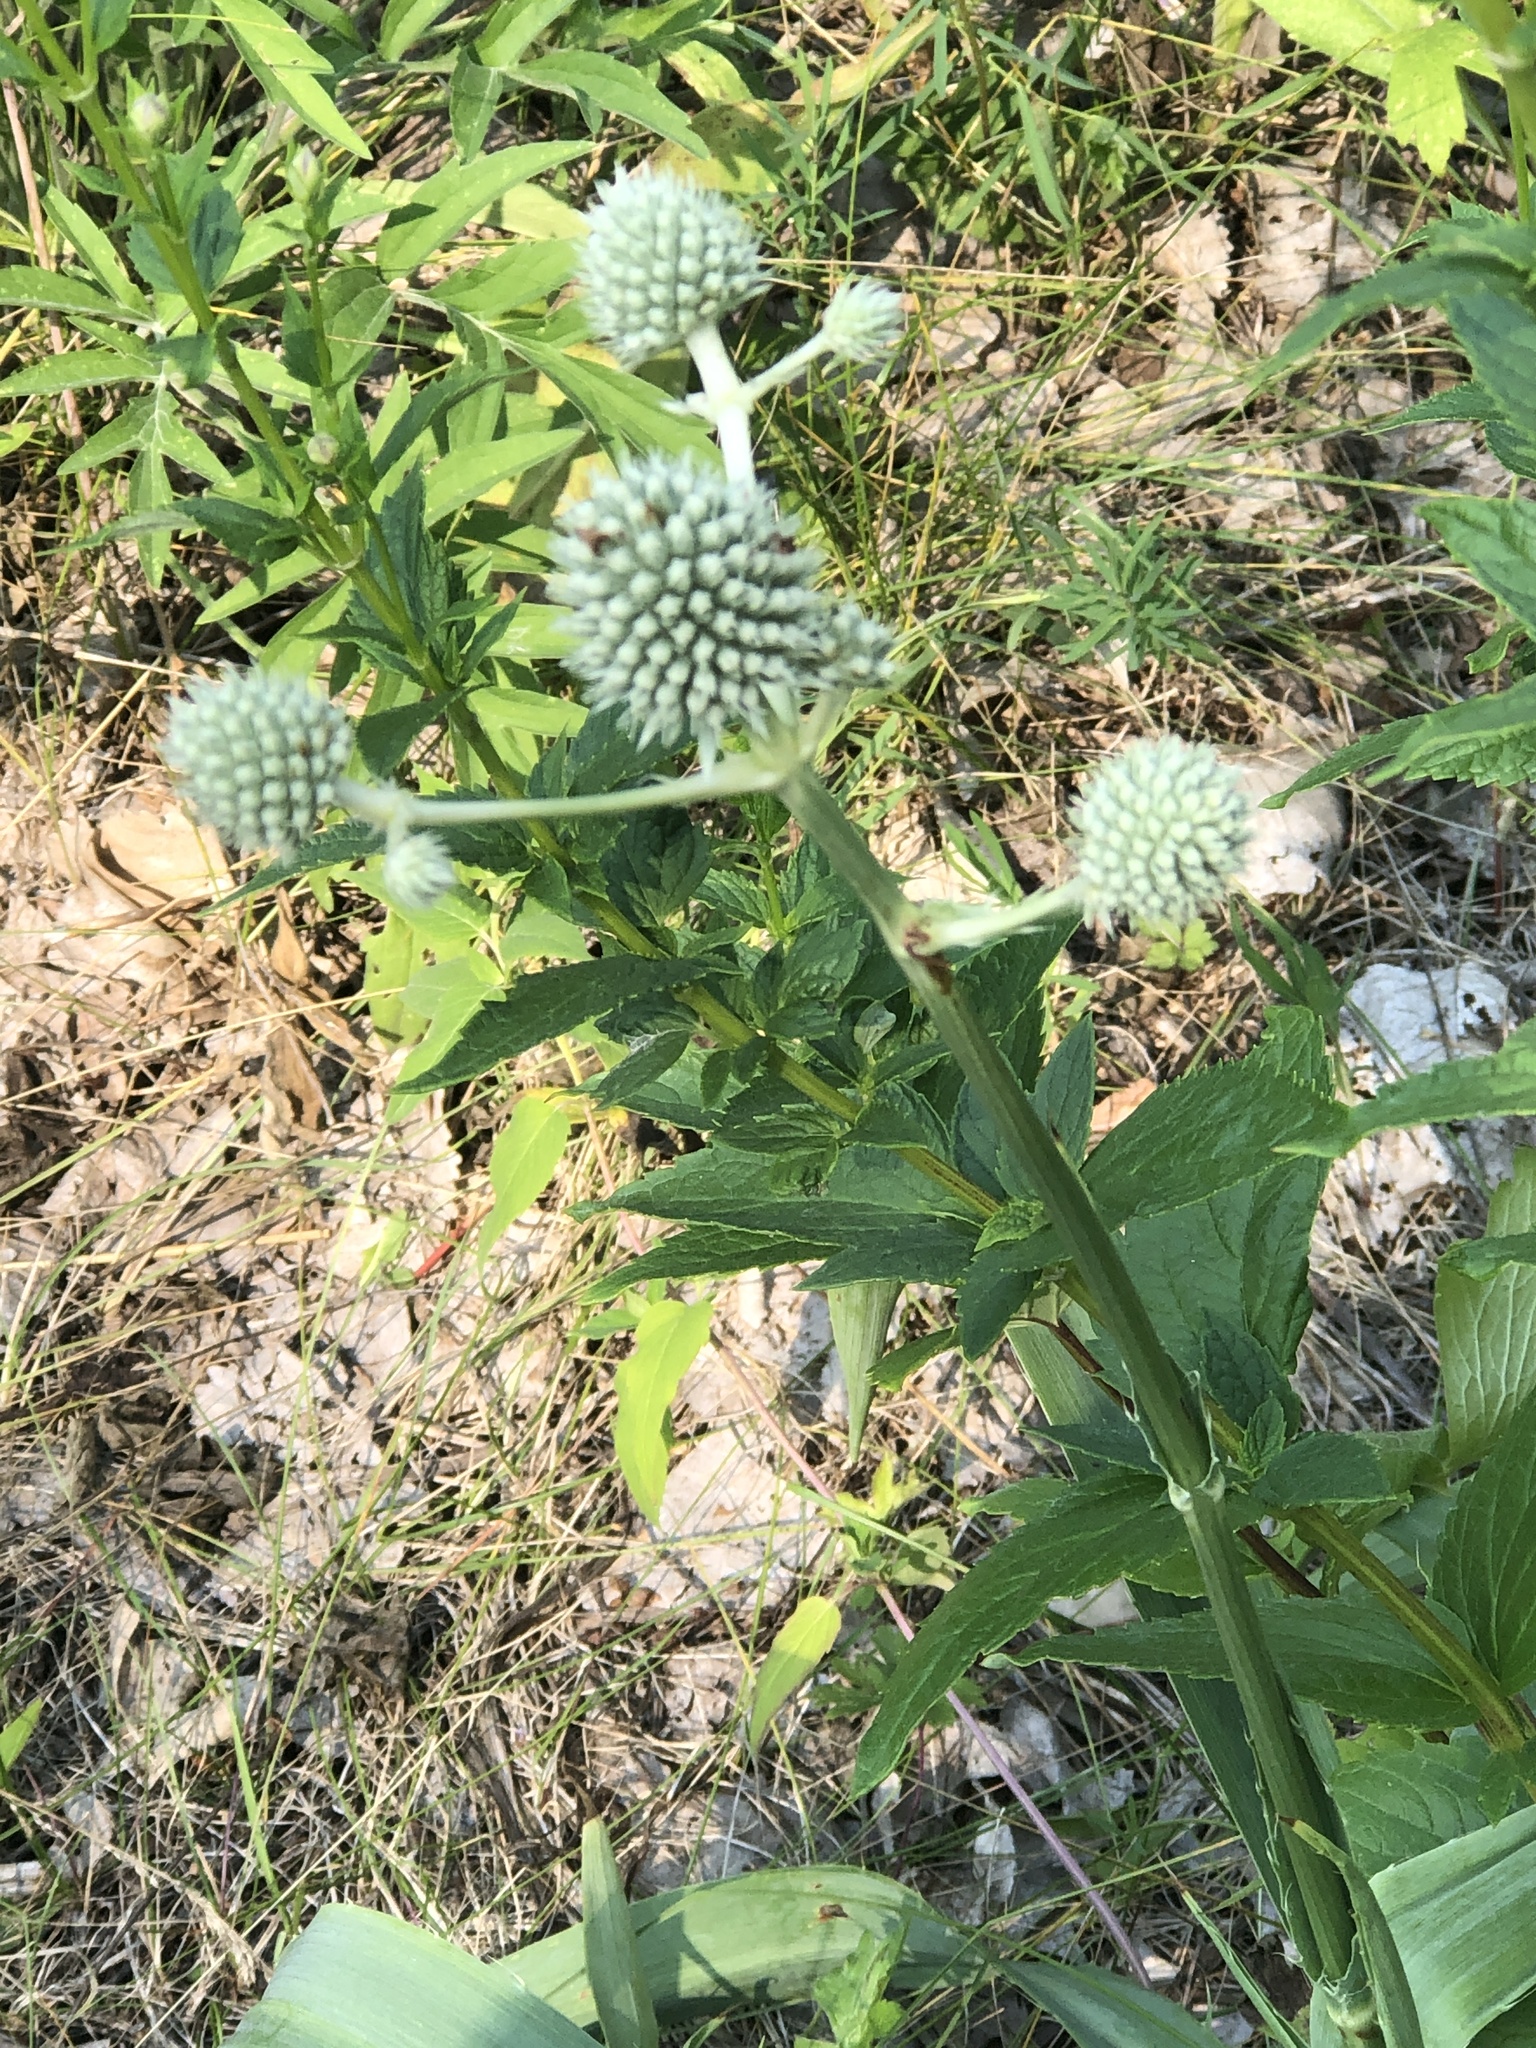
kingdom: Plantae
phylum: Tracheophyta
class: Magnoliopsida
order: Apiales
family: Apiaceae
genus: Eryngium
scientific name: Eryngium yuccifolium
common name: Button eryngo
